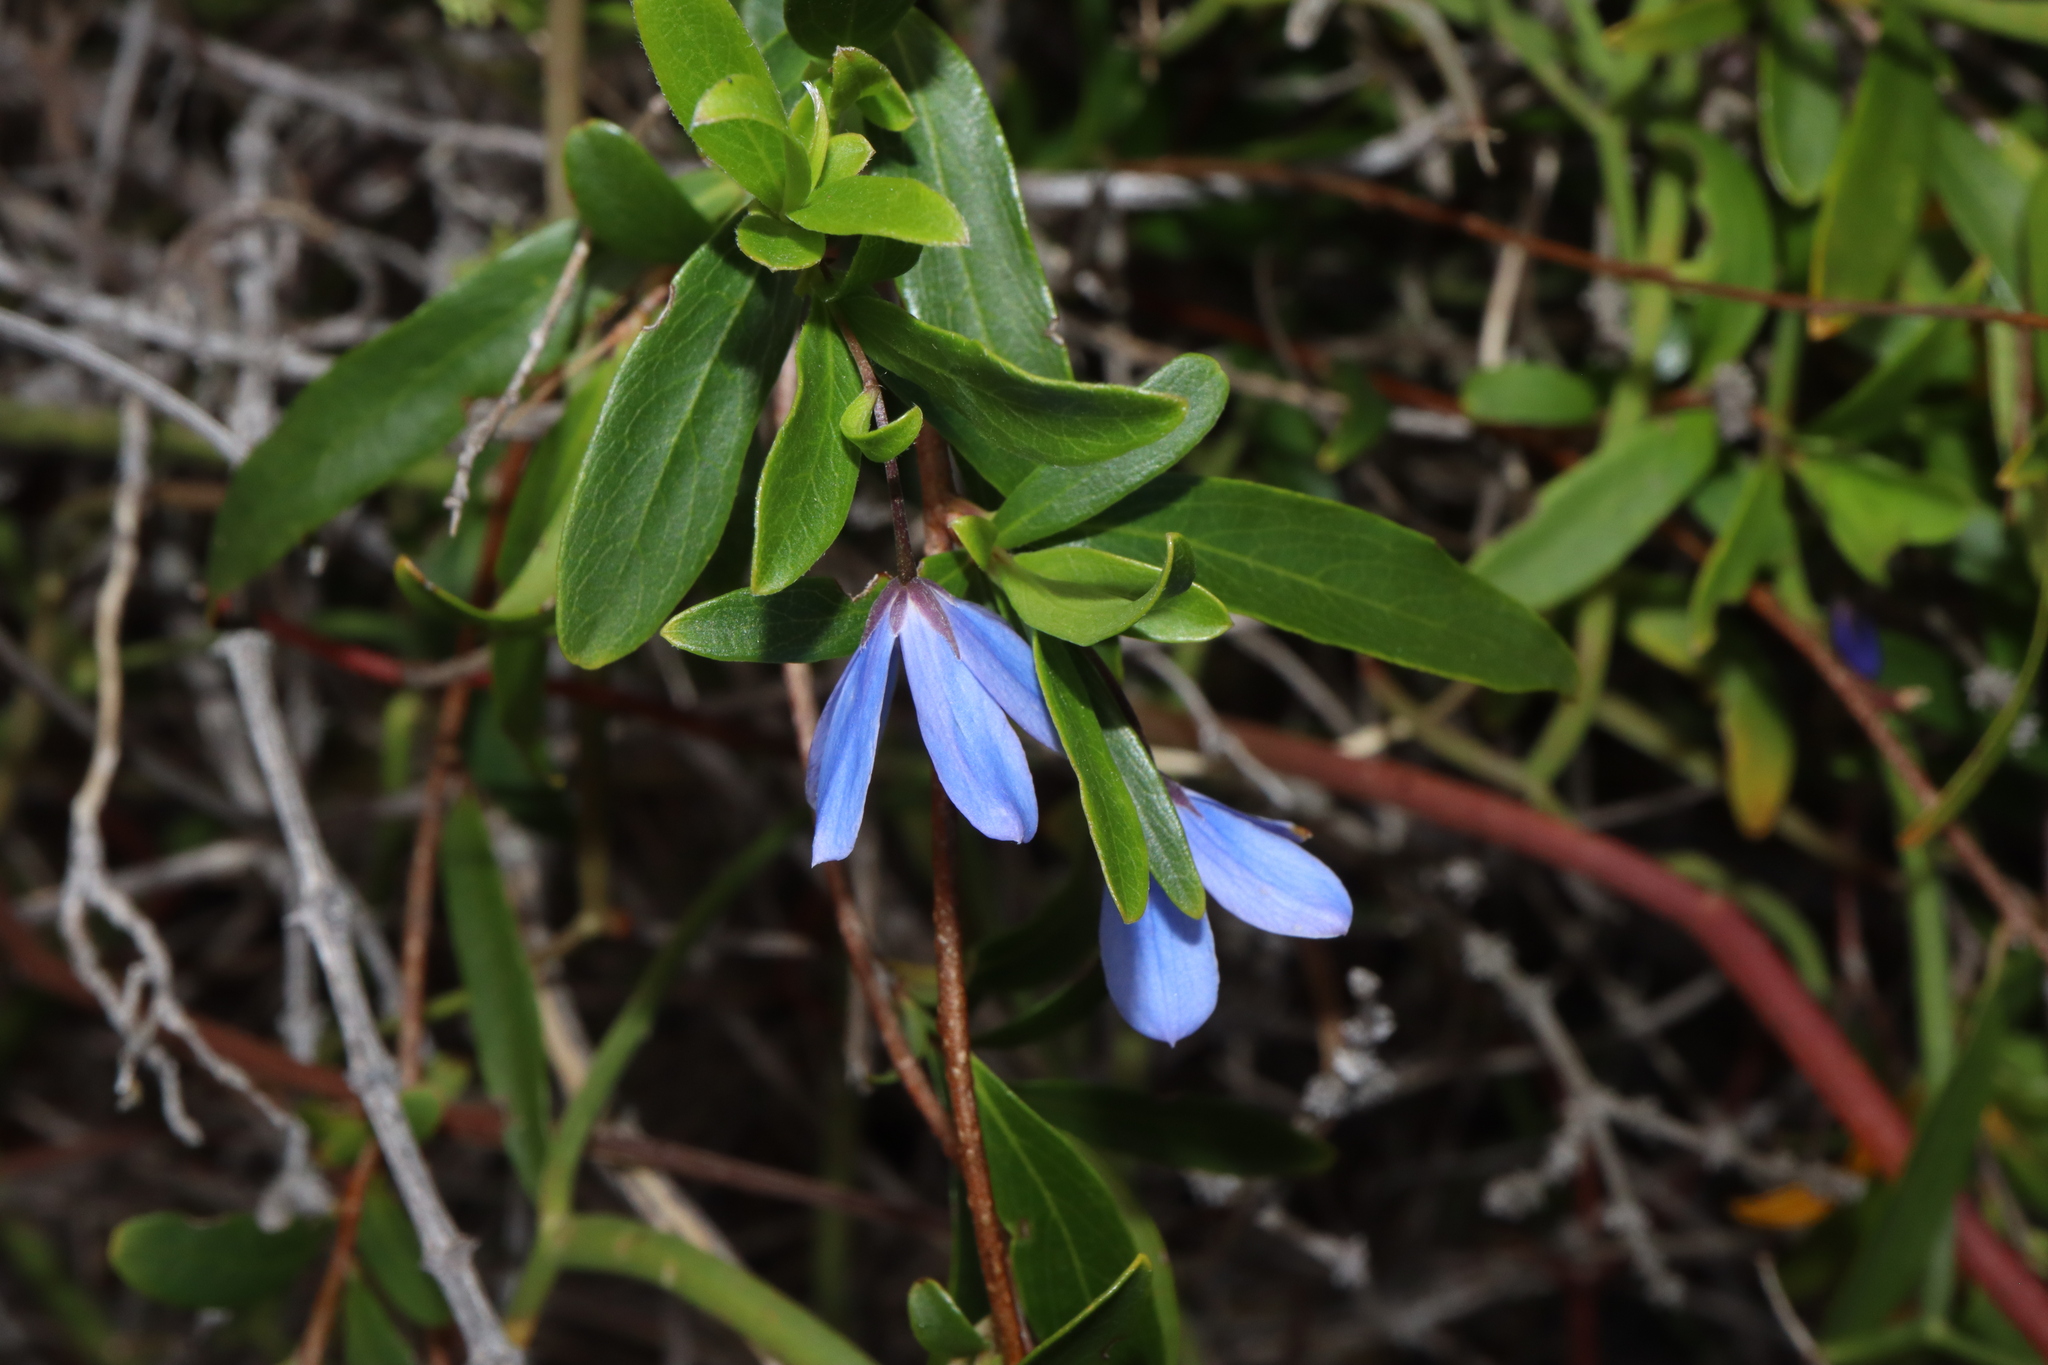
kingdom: Plantae
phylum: Tracheophyta
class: Magnoliopsida
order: Apiales
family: Pittosporaceae
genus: Billardiera
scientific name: Billardiera fusiformis
